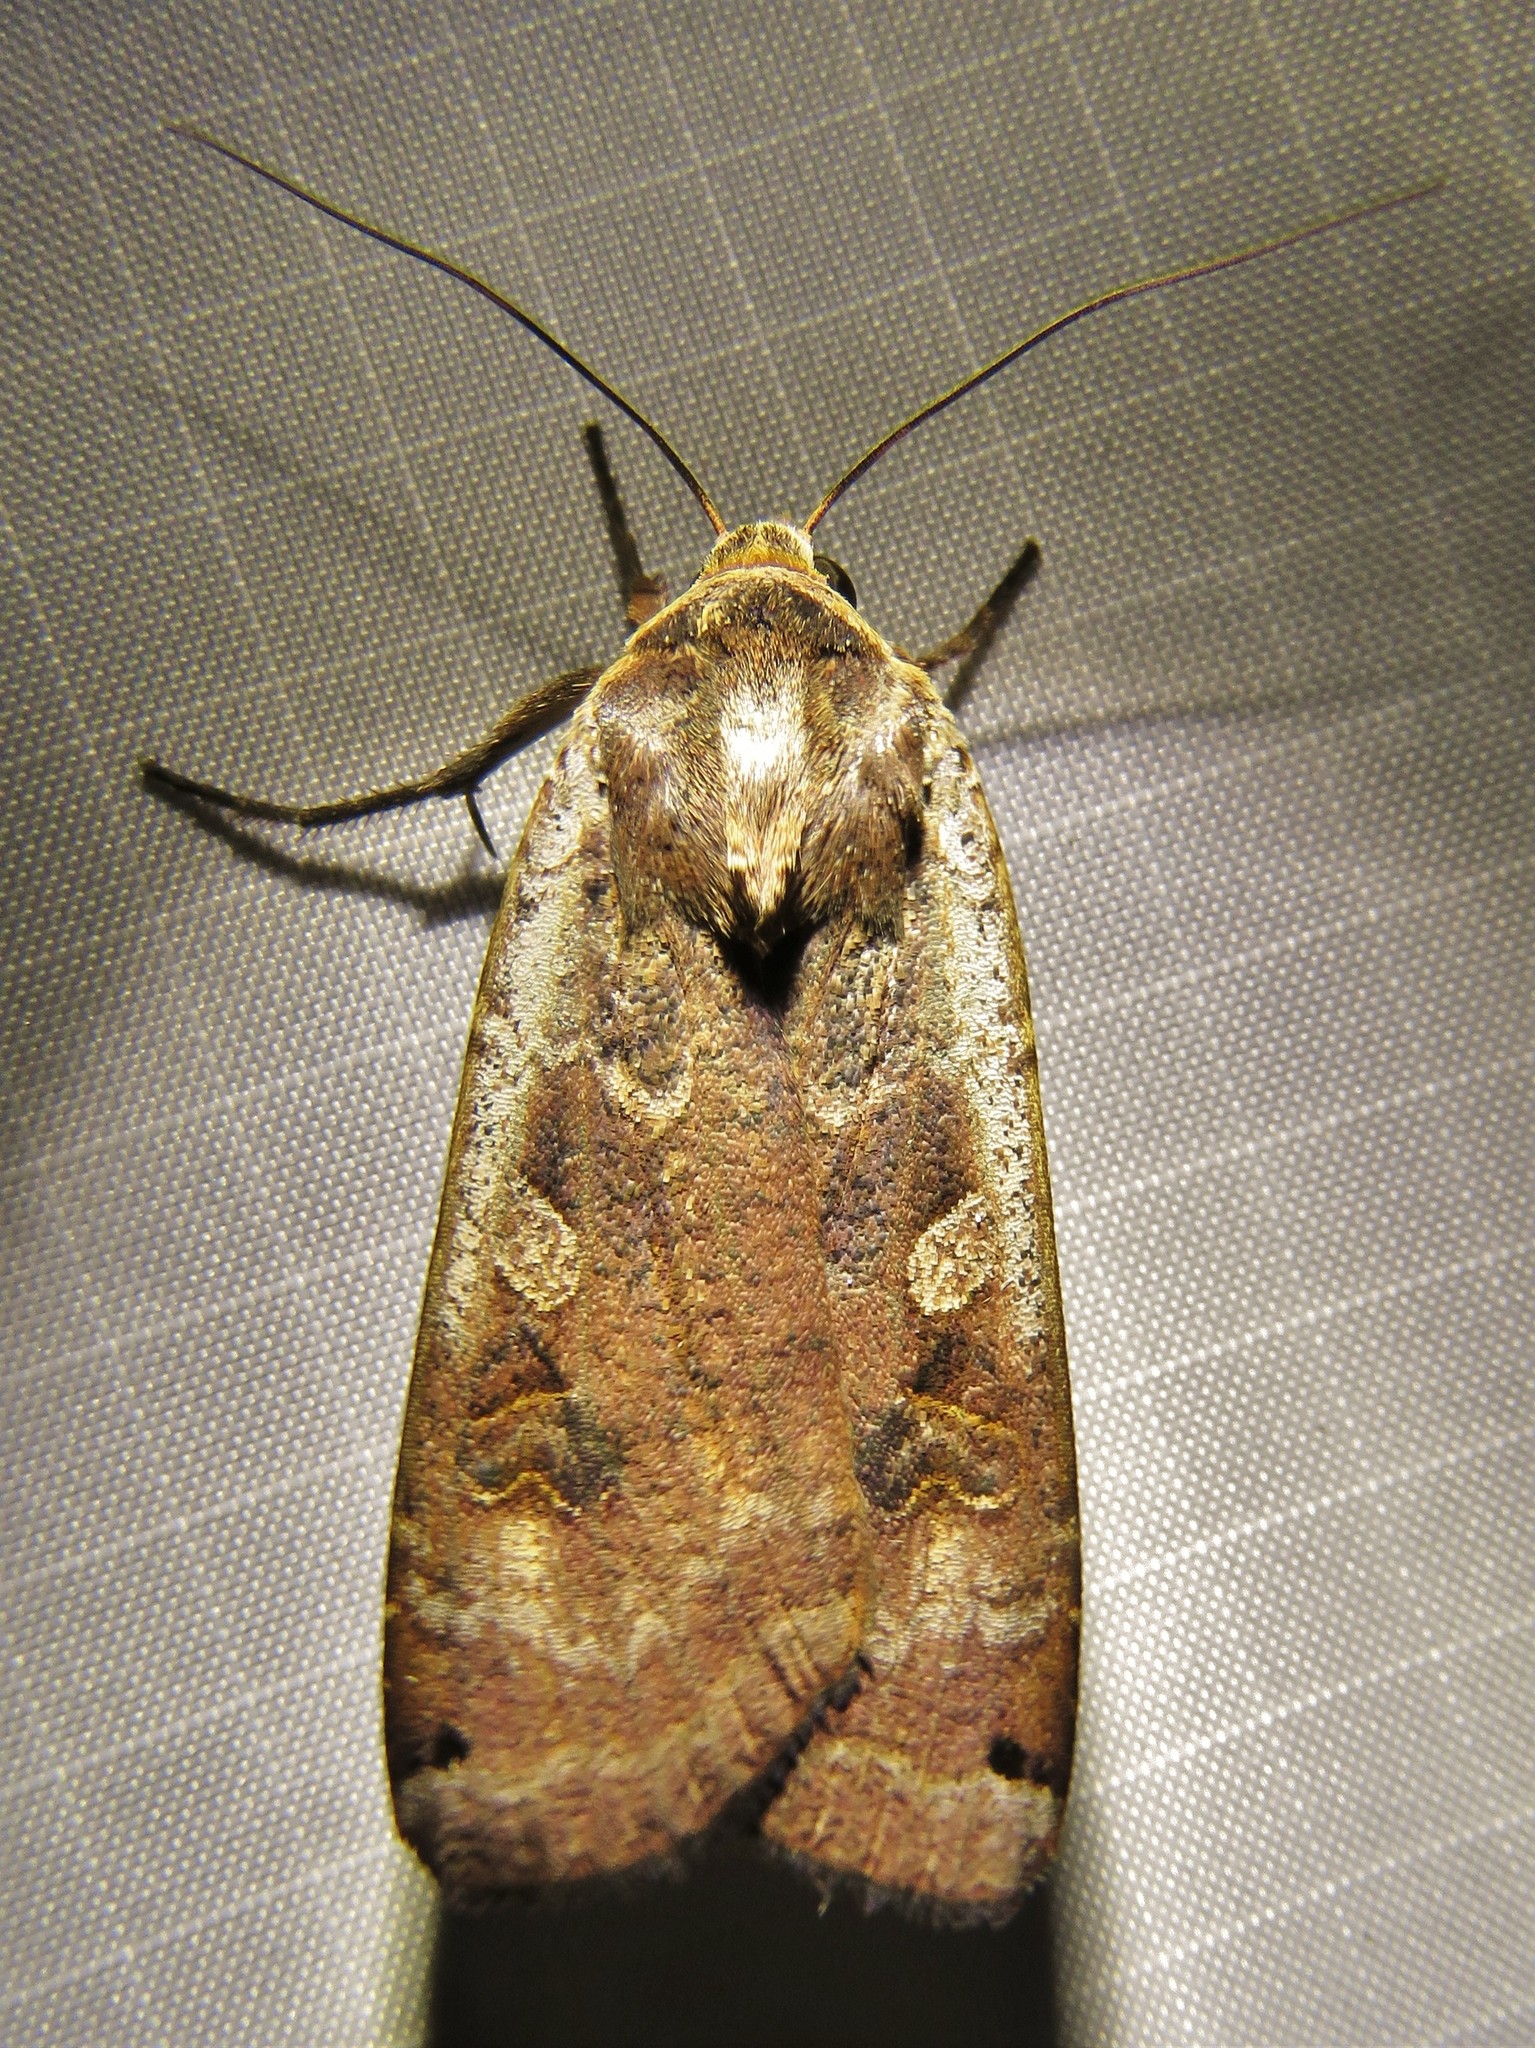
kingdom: Animalia
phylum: Arthropoda
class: Insecta
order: Lepidoptera
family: Noctuidae
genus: Noctua
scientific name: Noctua pronuba
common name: Large yellow underwing
